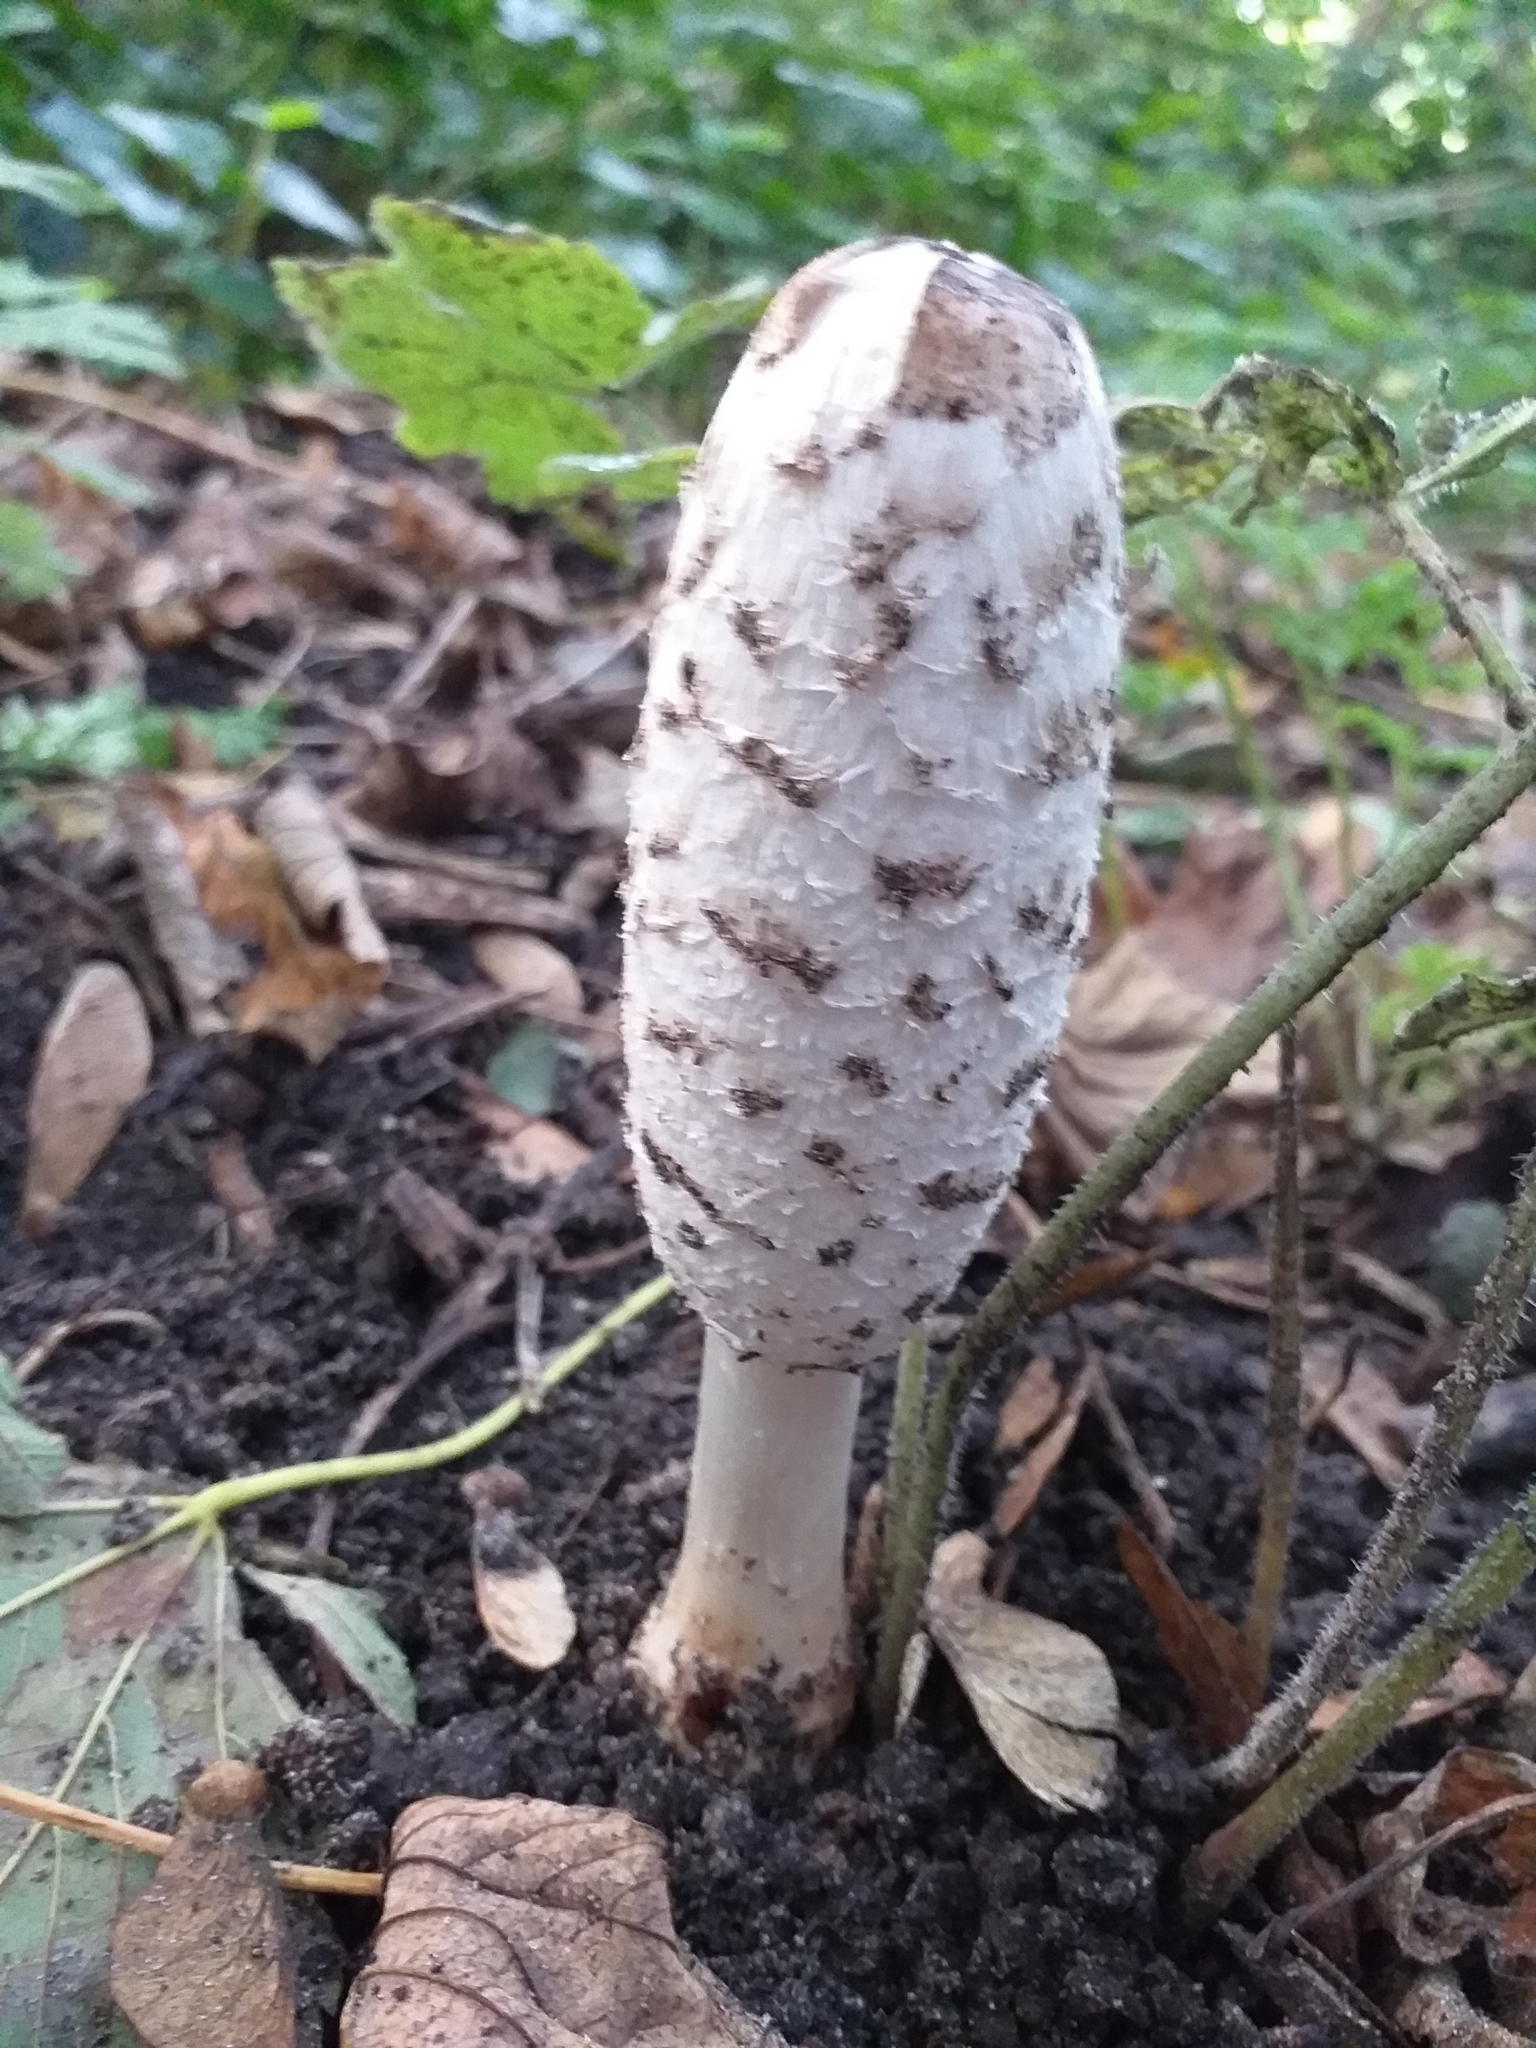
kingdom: Fungi
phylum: Basidiomycota
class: Agaricomycetes
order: Agaricales
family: Agaricaceae
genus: Coprinus
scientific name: Coprinus comatus
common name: Lawyer's wig
